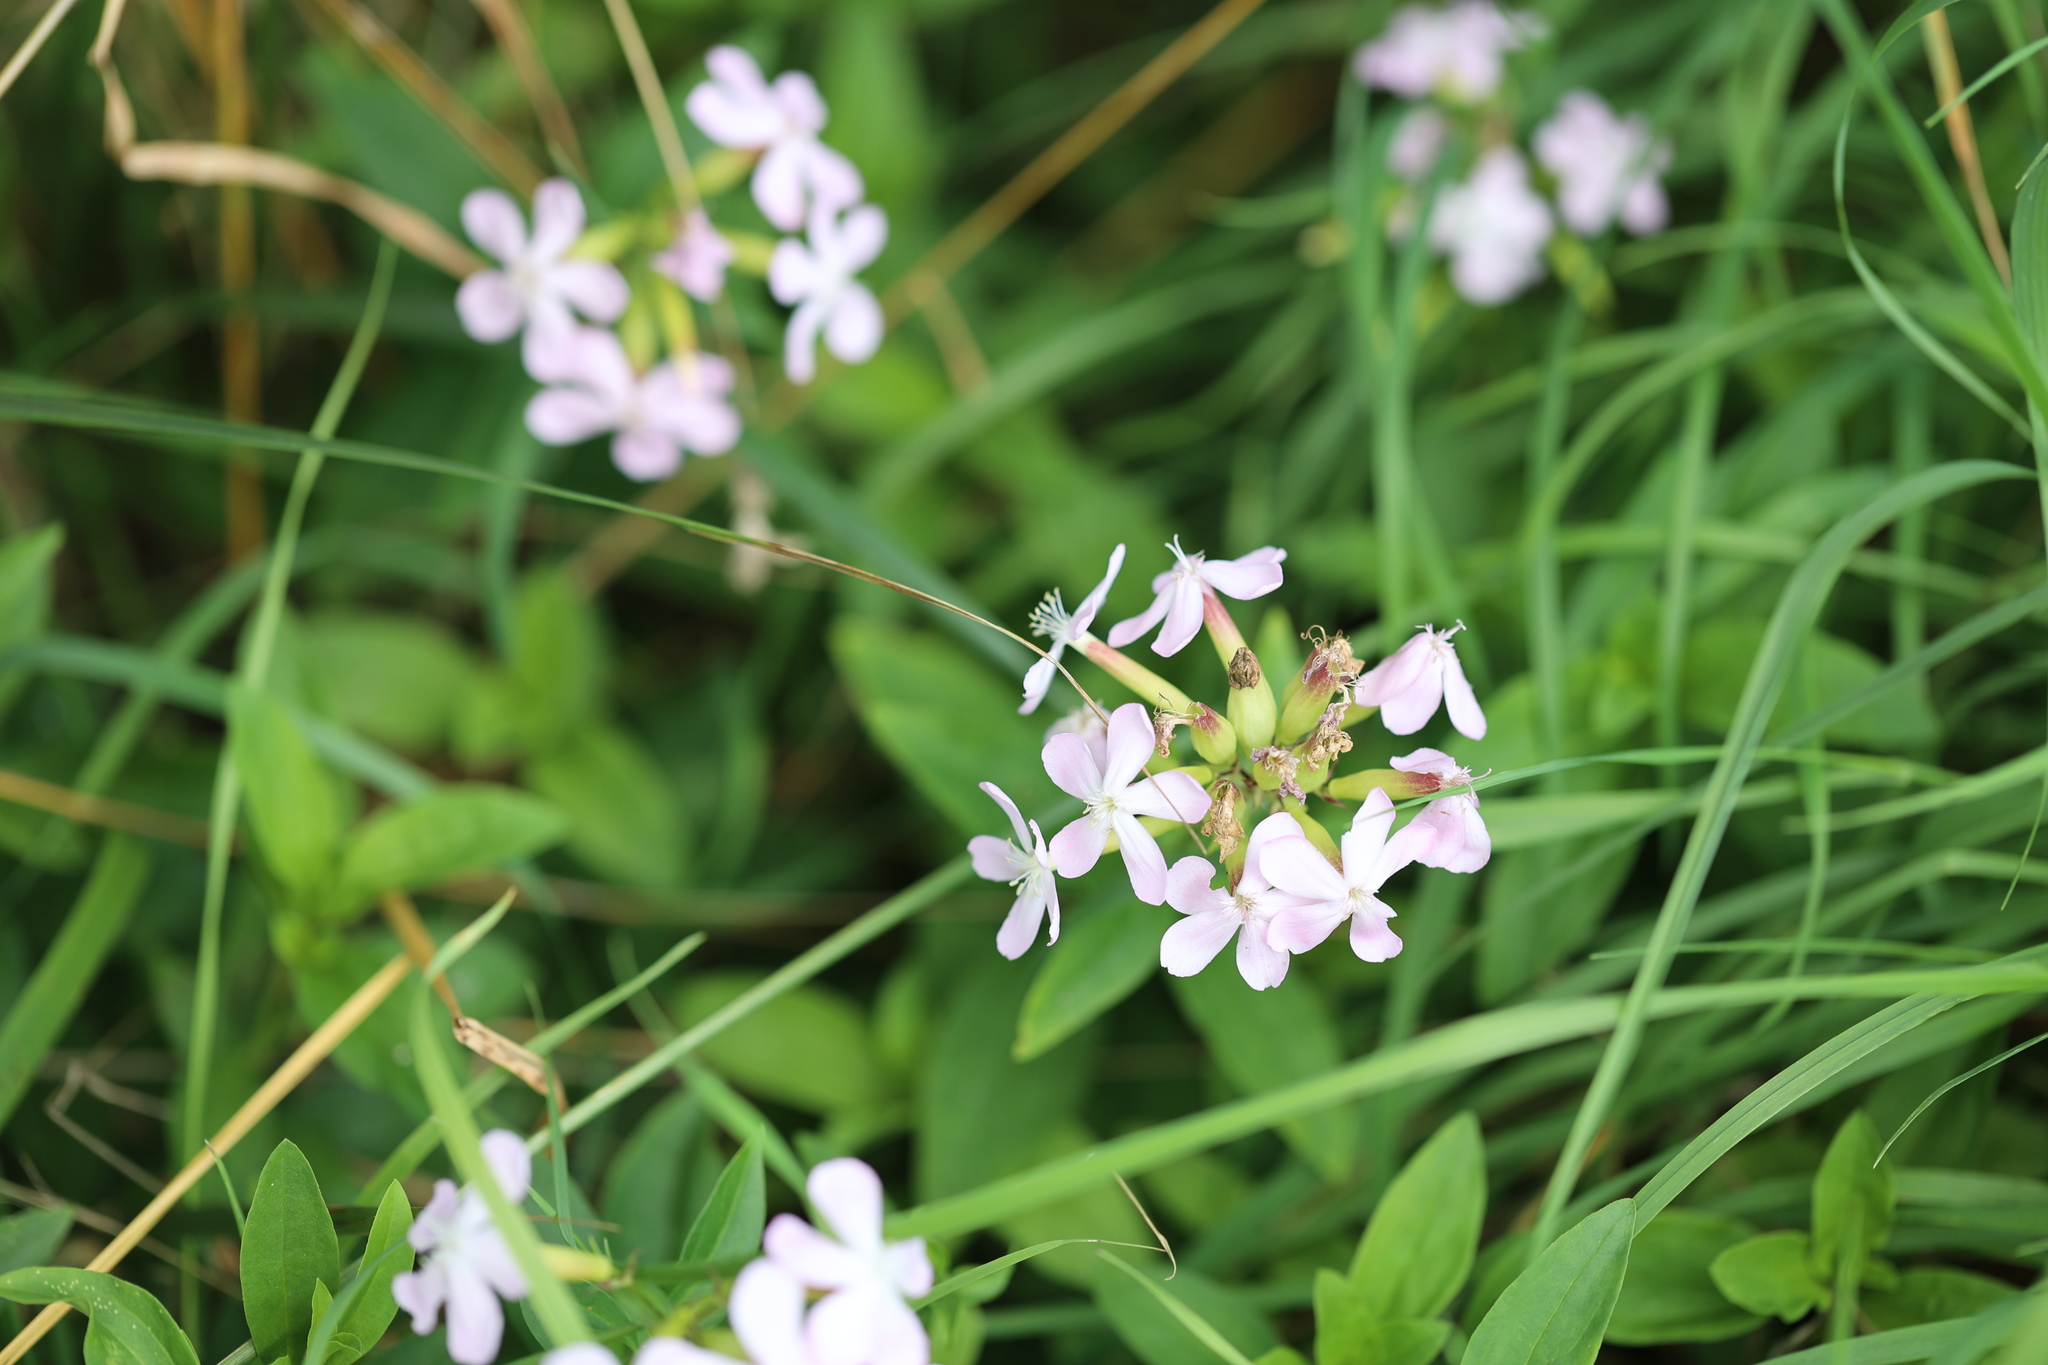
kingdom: Plantae
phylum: Tracheophyta
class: Magnoliopsida
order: Caryophyllales
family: Caryophyllaceae
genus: Saponaria
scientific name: Saponaria officinalis
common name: Soapwort
